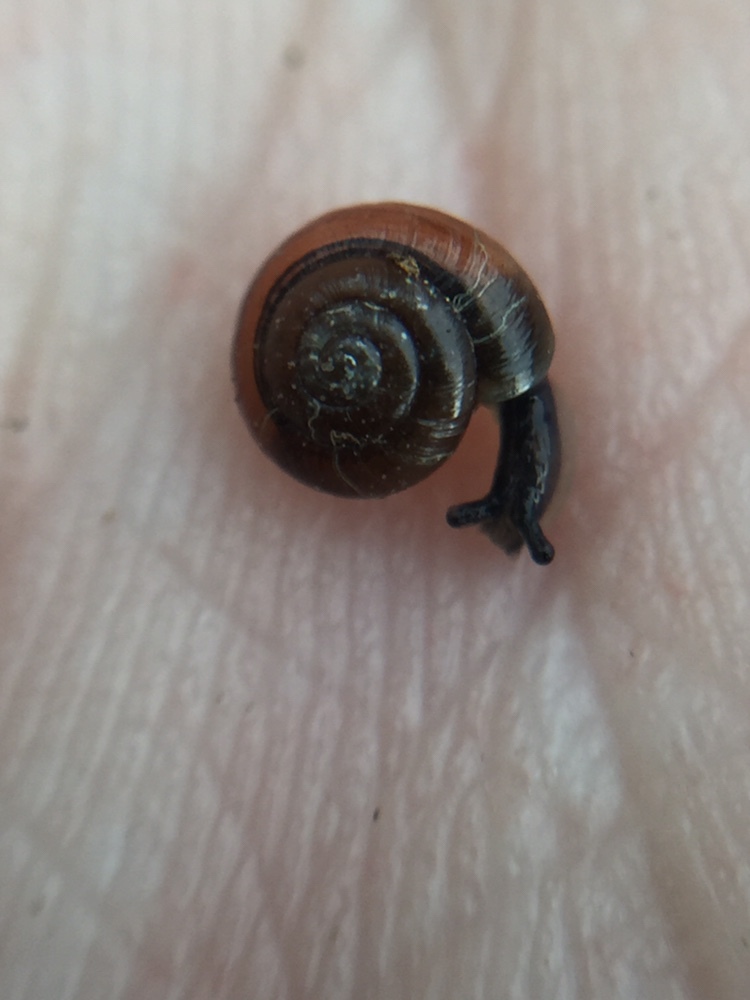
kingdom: Animalia
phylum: Mollusca
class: Gastropoda
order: Stylommatophora
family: Gastrodontidae
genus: Zonitoides
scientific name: Zonitoides arboreus
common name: Quick gloss
